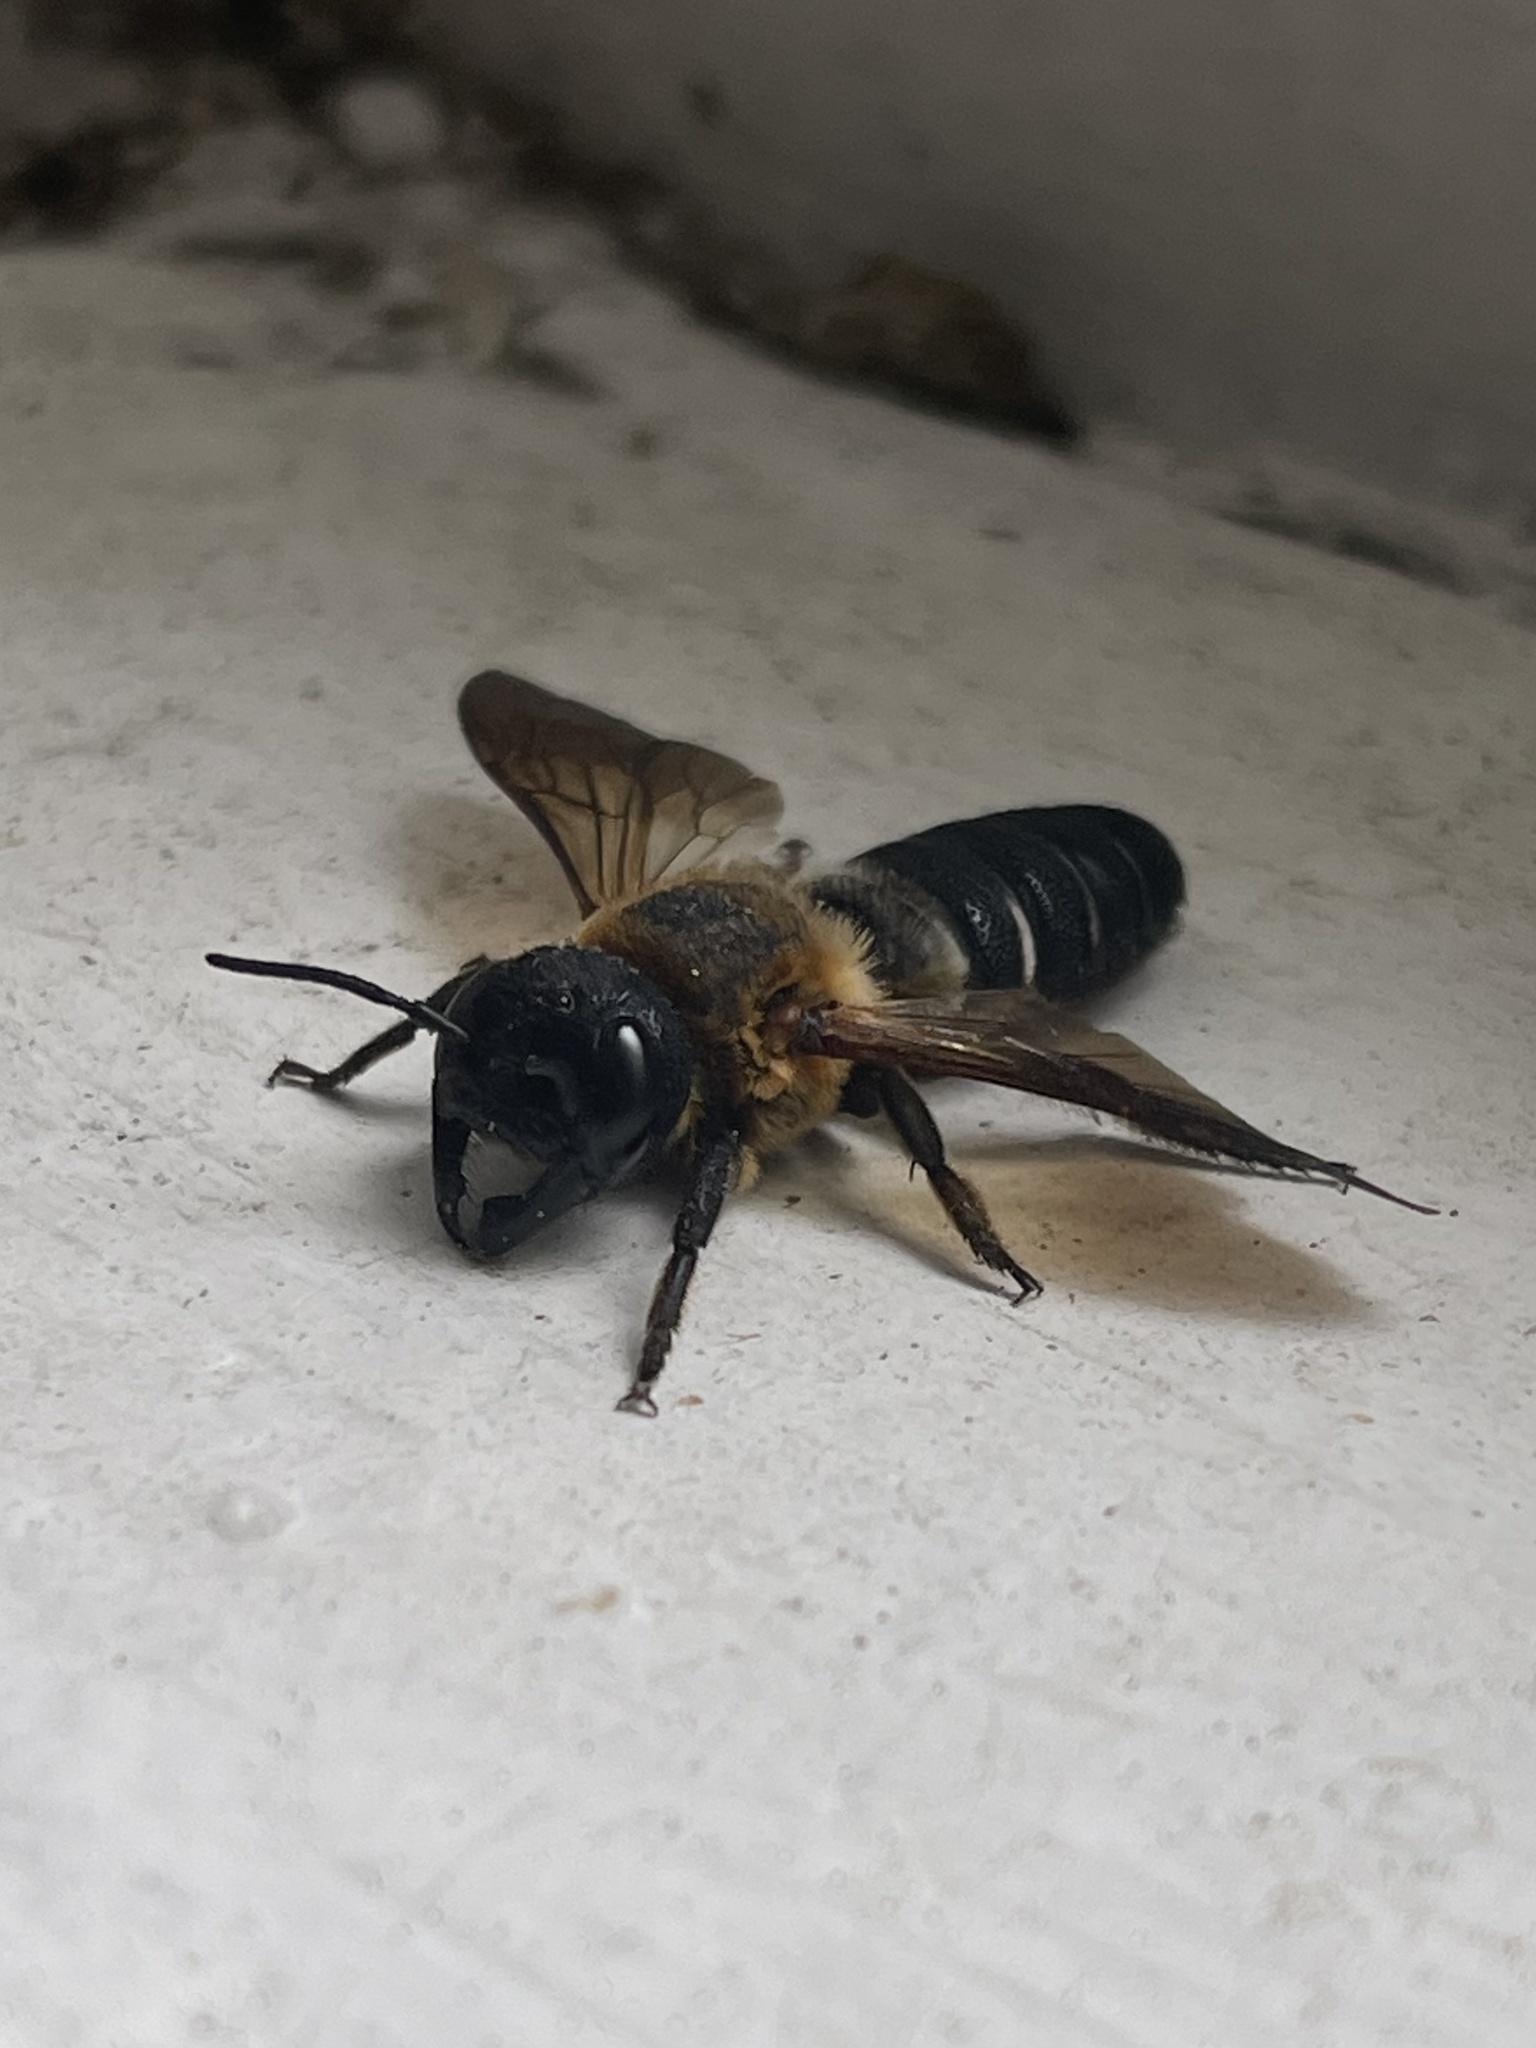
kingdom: Animalia
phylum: Arthropoda
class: Insecta
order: Hymenoptera
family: Megachilidae
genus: Megachile
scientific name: Megachile sculpturalis
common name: Sculptured resin bee
